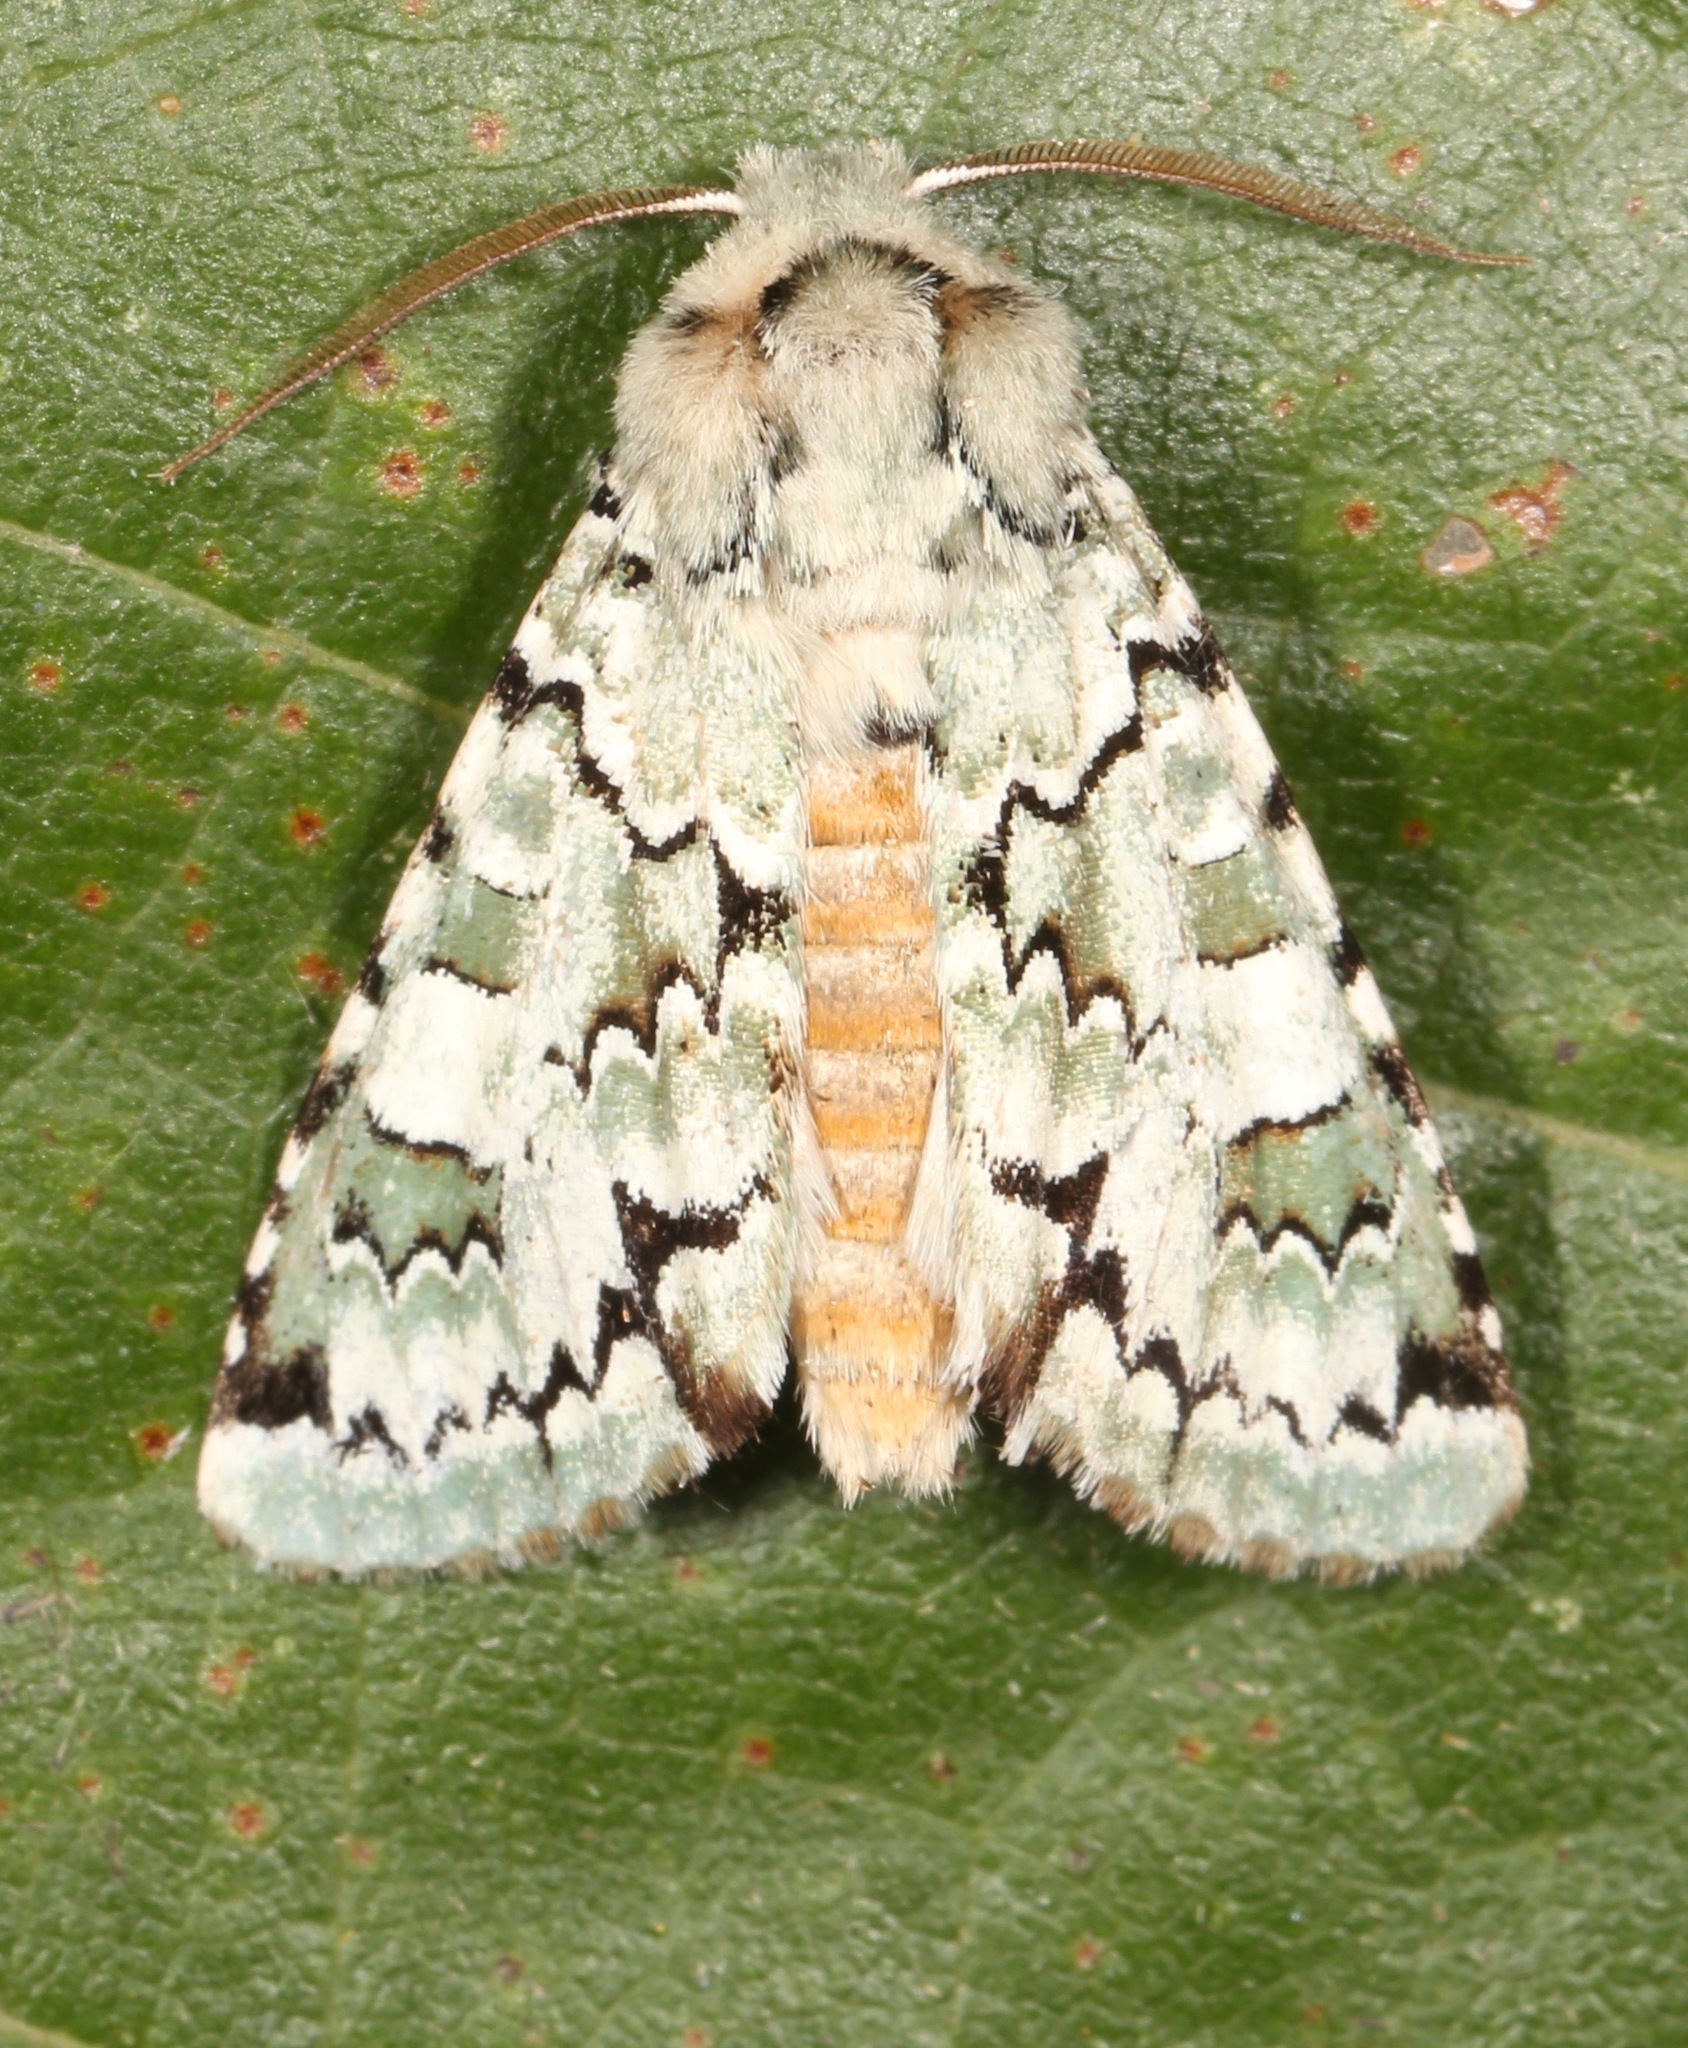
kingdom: Animalia
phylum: Arthropoda
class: Insecta
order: Lepidoptera
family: Noctuidae
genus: Miracavira
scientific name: Miracavira brillians
